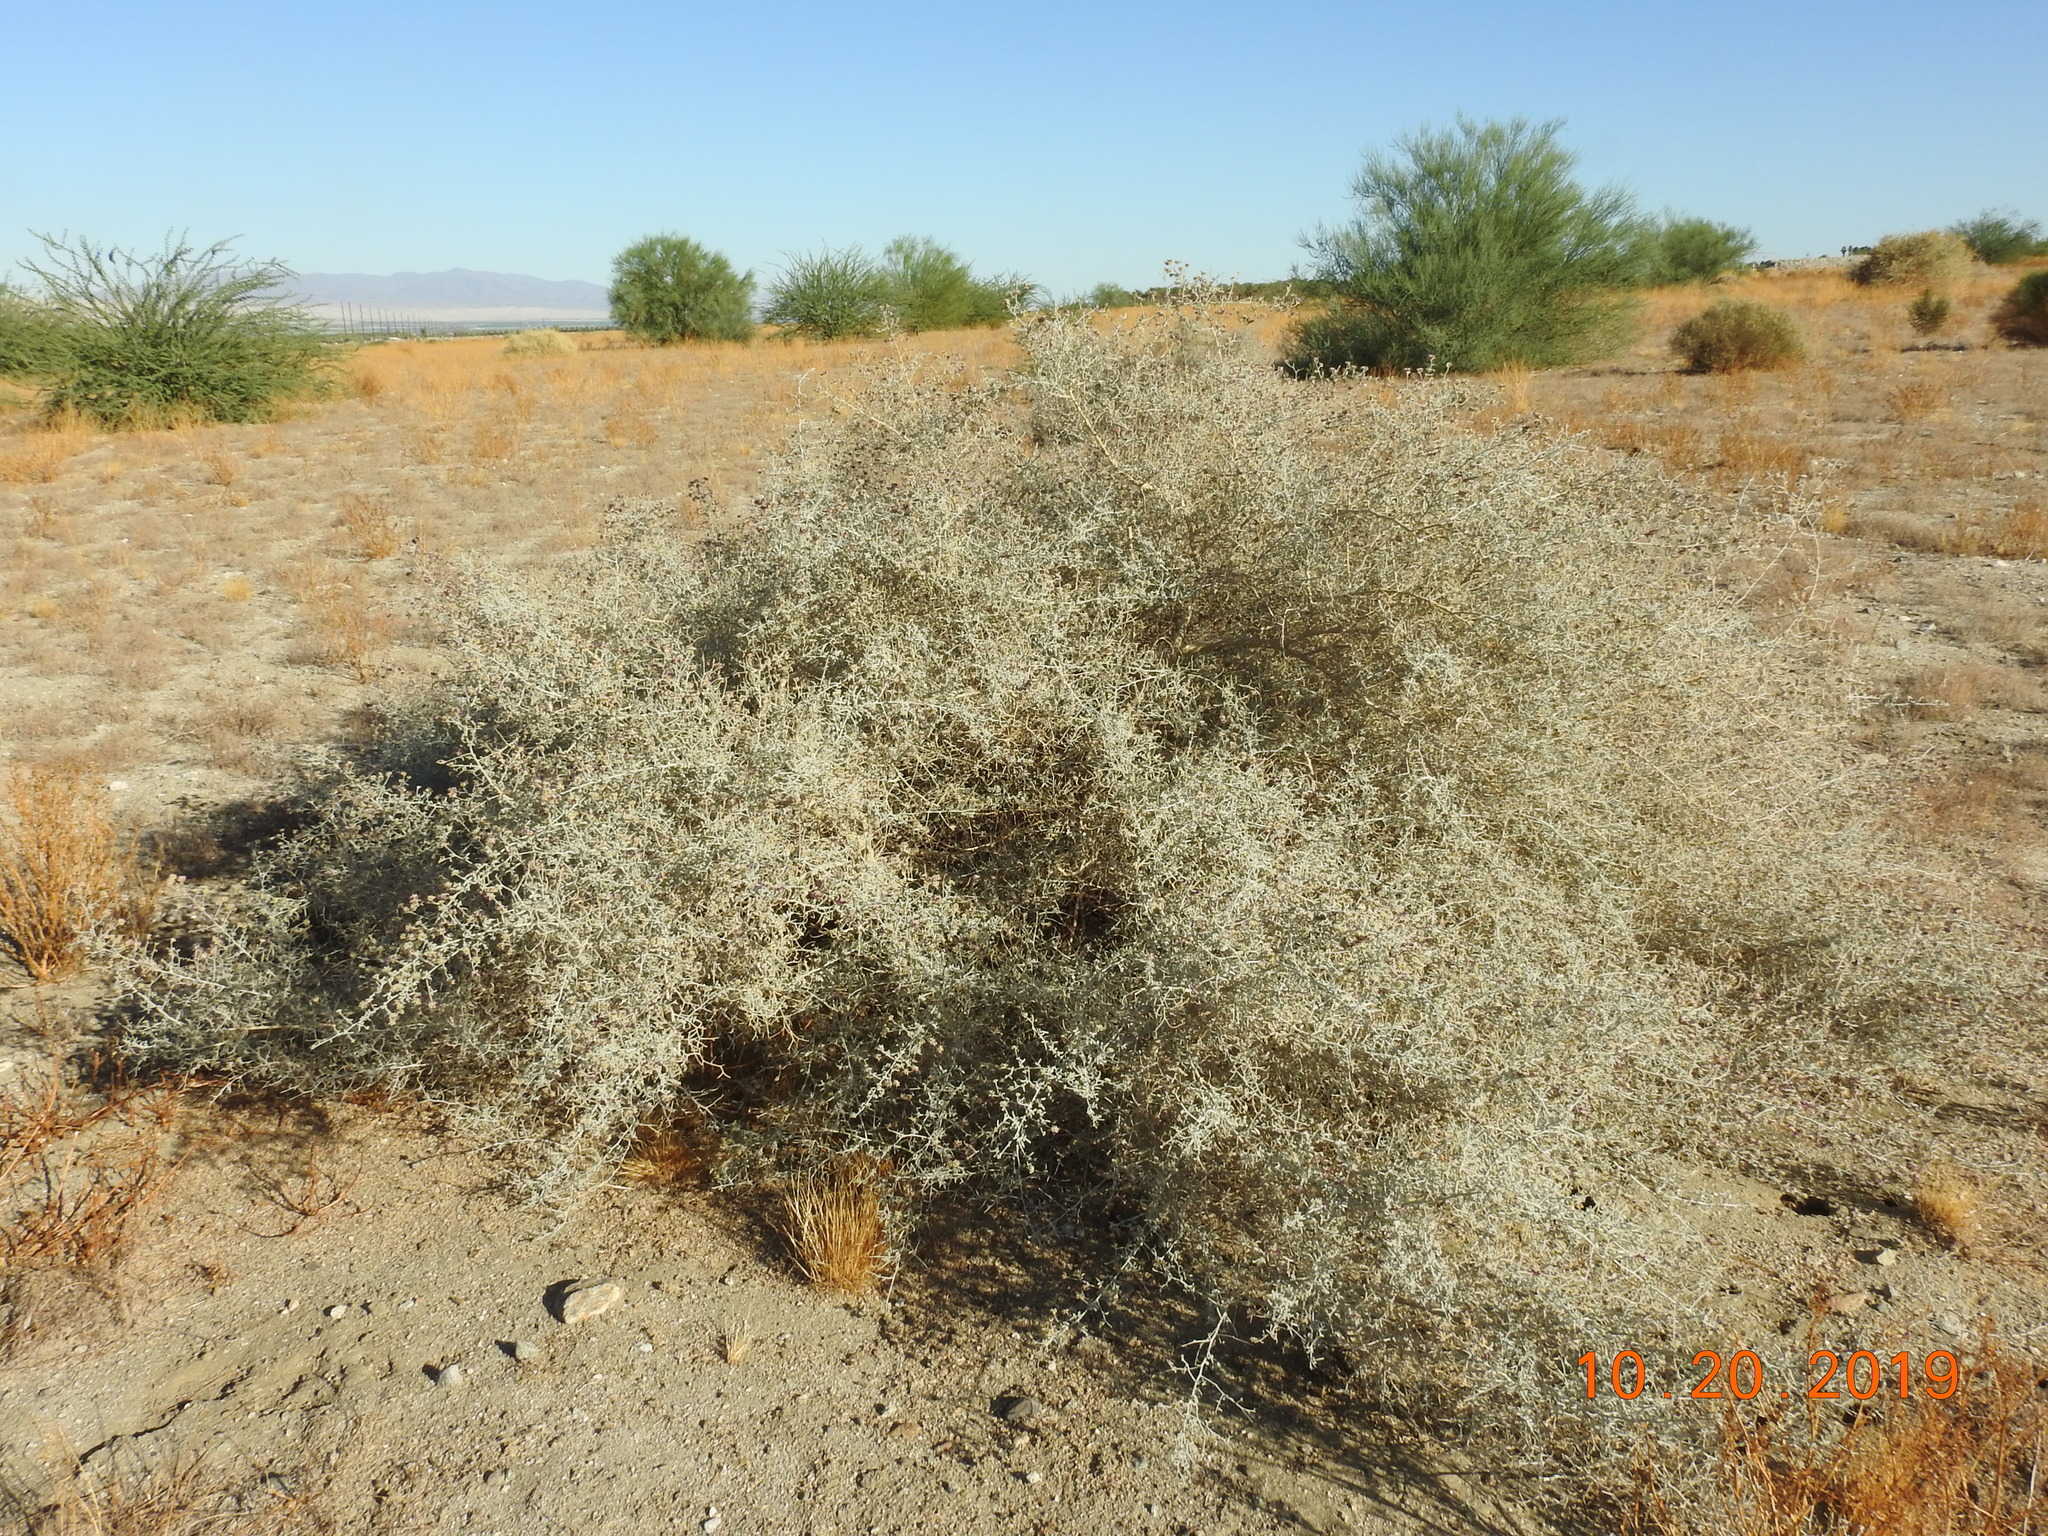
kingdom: Plantae
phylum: Tracheophyta
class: Magnoliopsida
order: Fabales
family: Fabaceae
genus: Psorothamnus
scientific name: Psorothamnus emoryi
